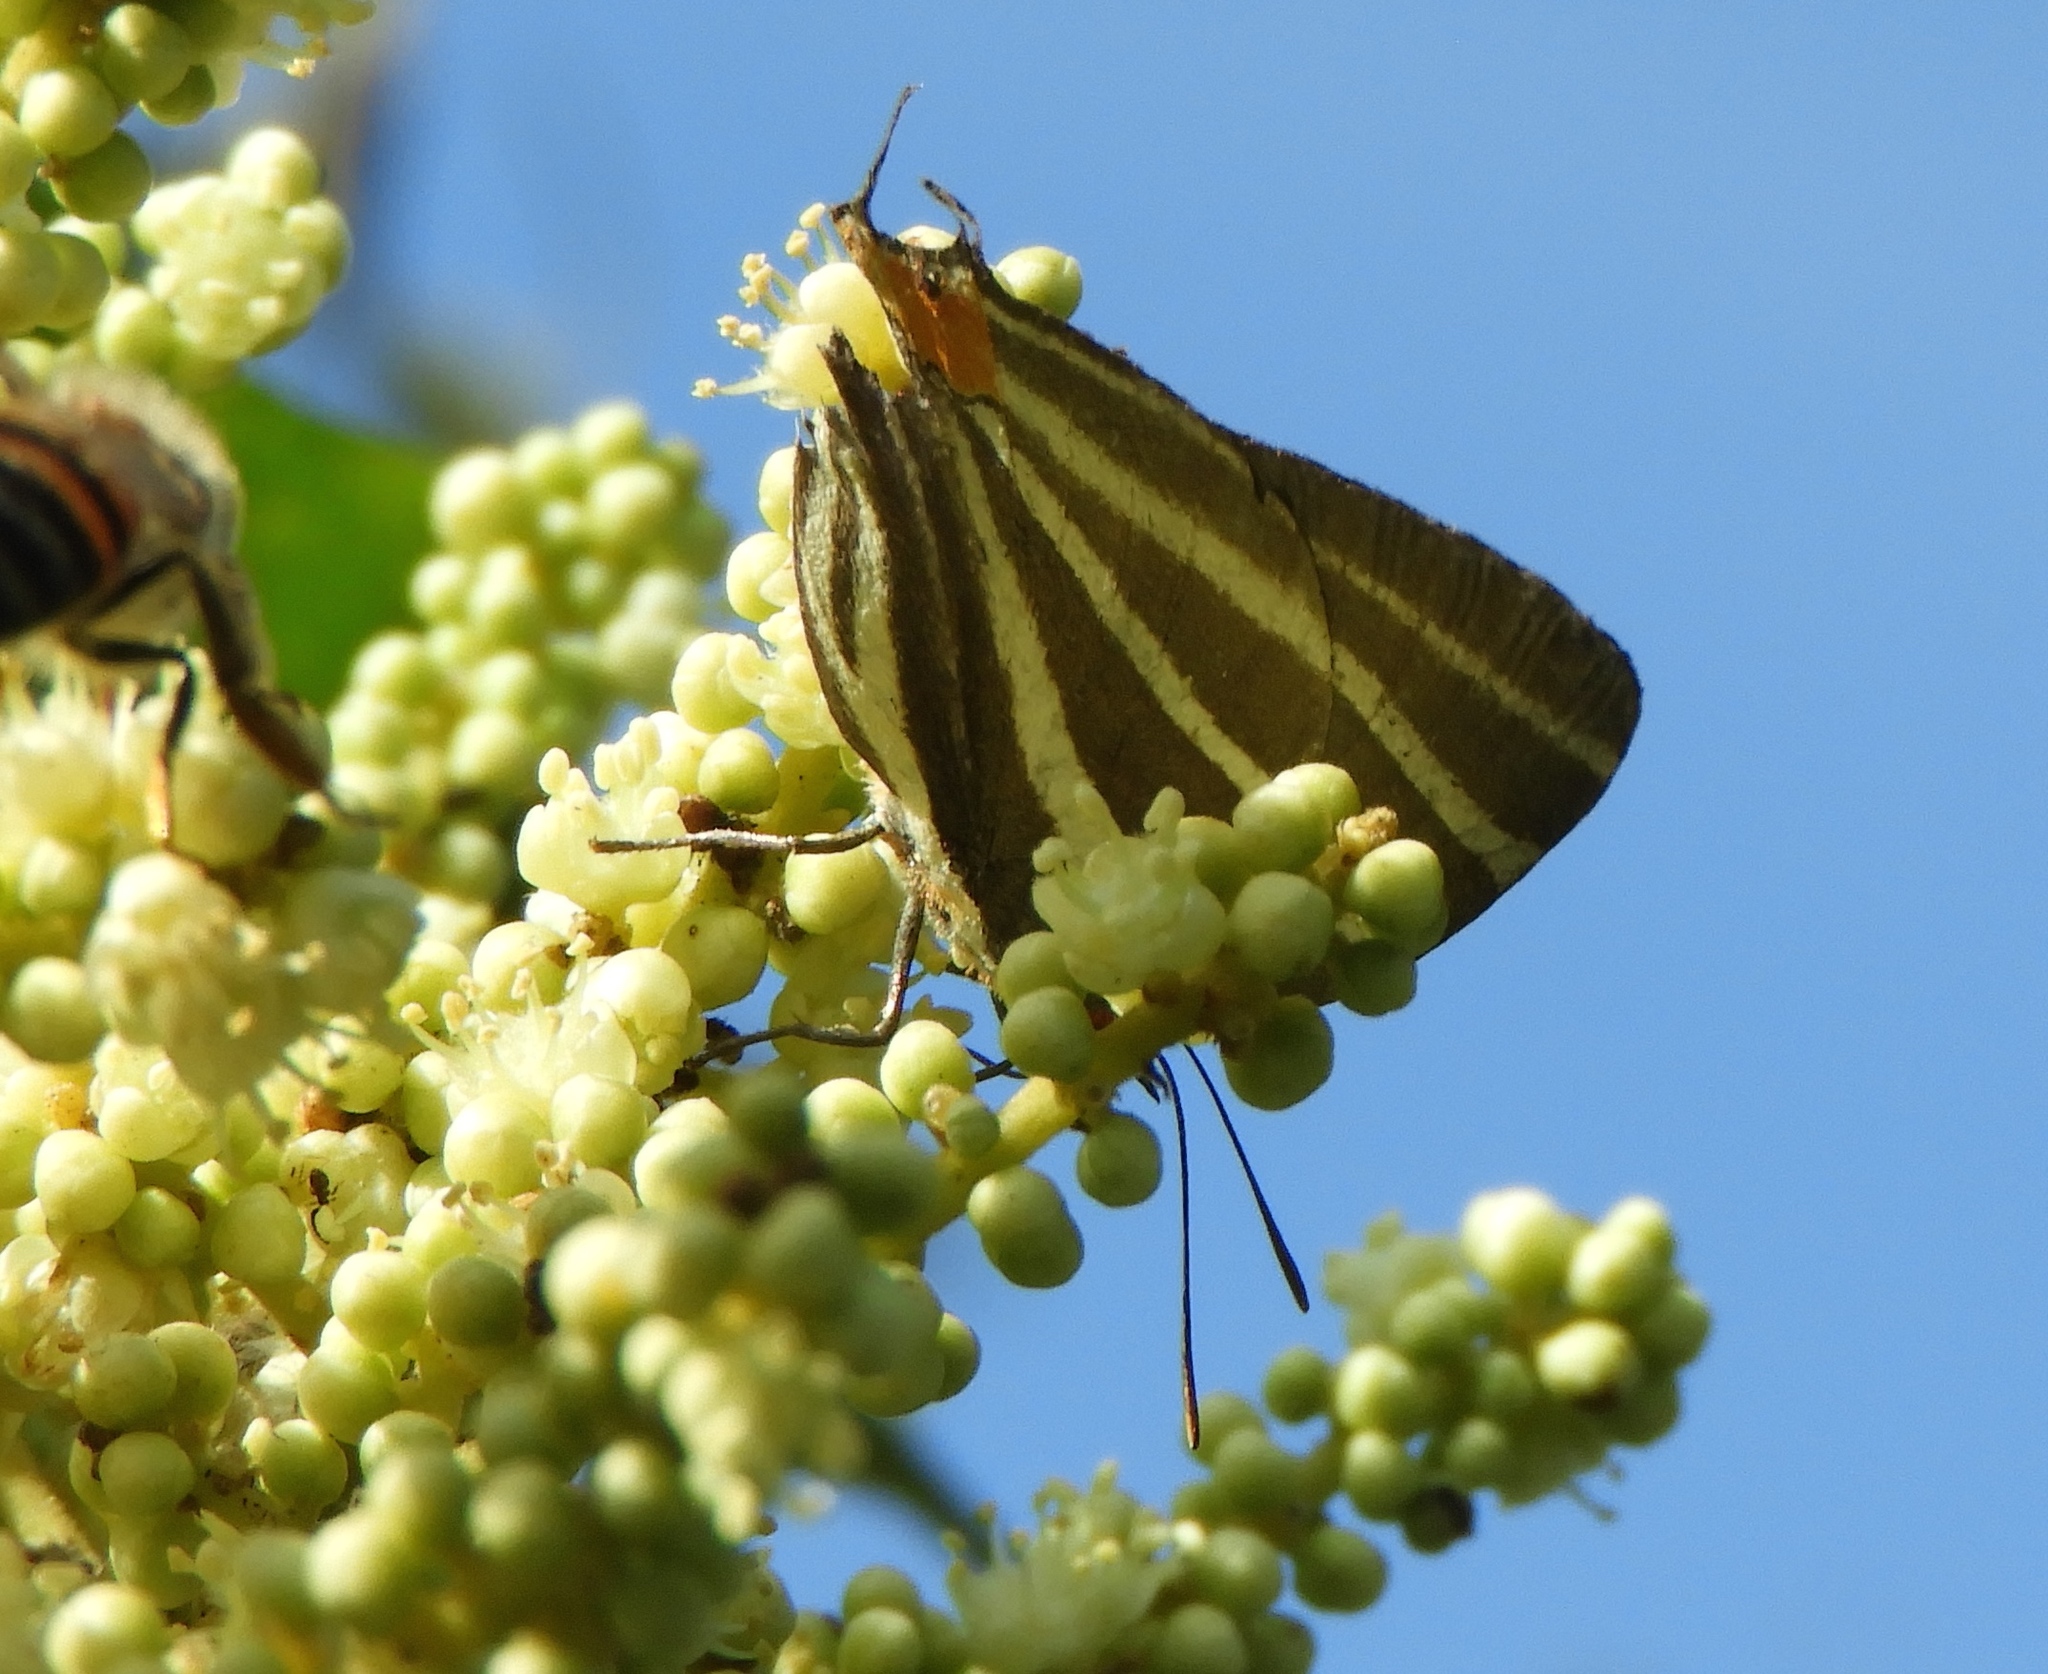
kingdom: Animalia
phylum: Arthropoda
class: Insecta
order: Lepidoptera
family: Lycaenidae
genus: Thecla
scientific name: Thecla bathildis
